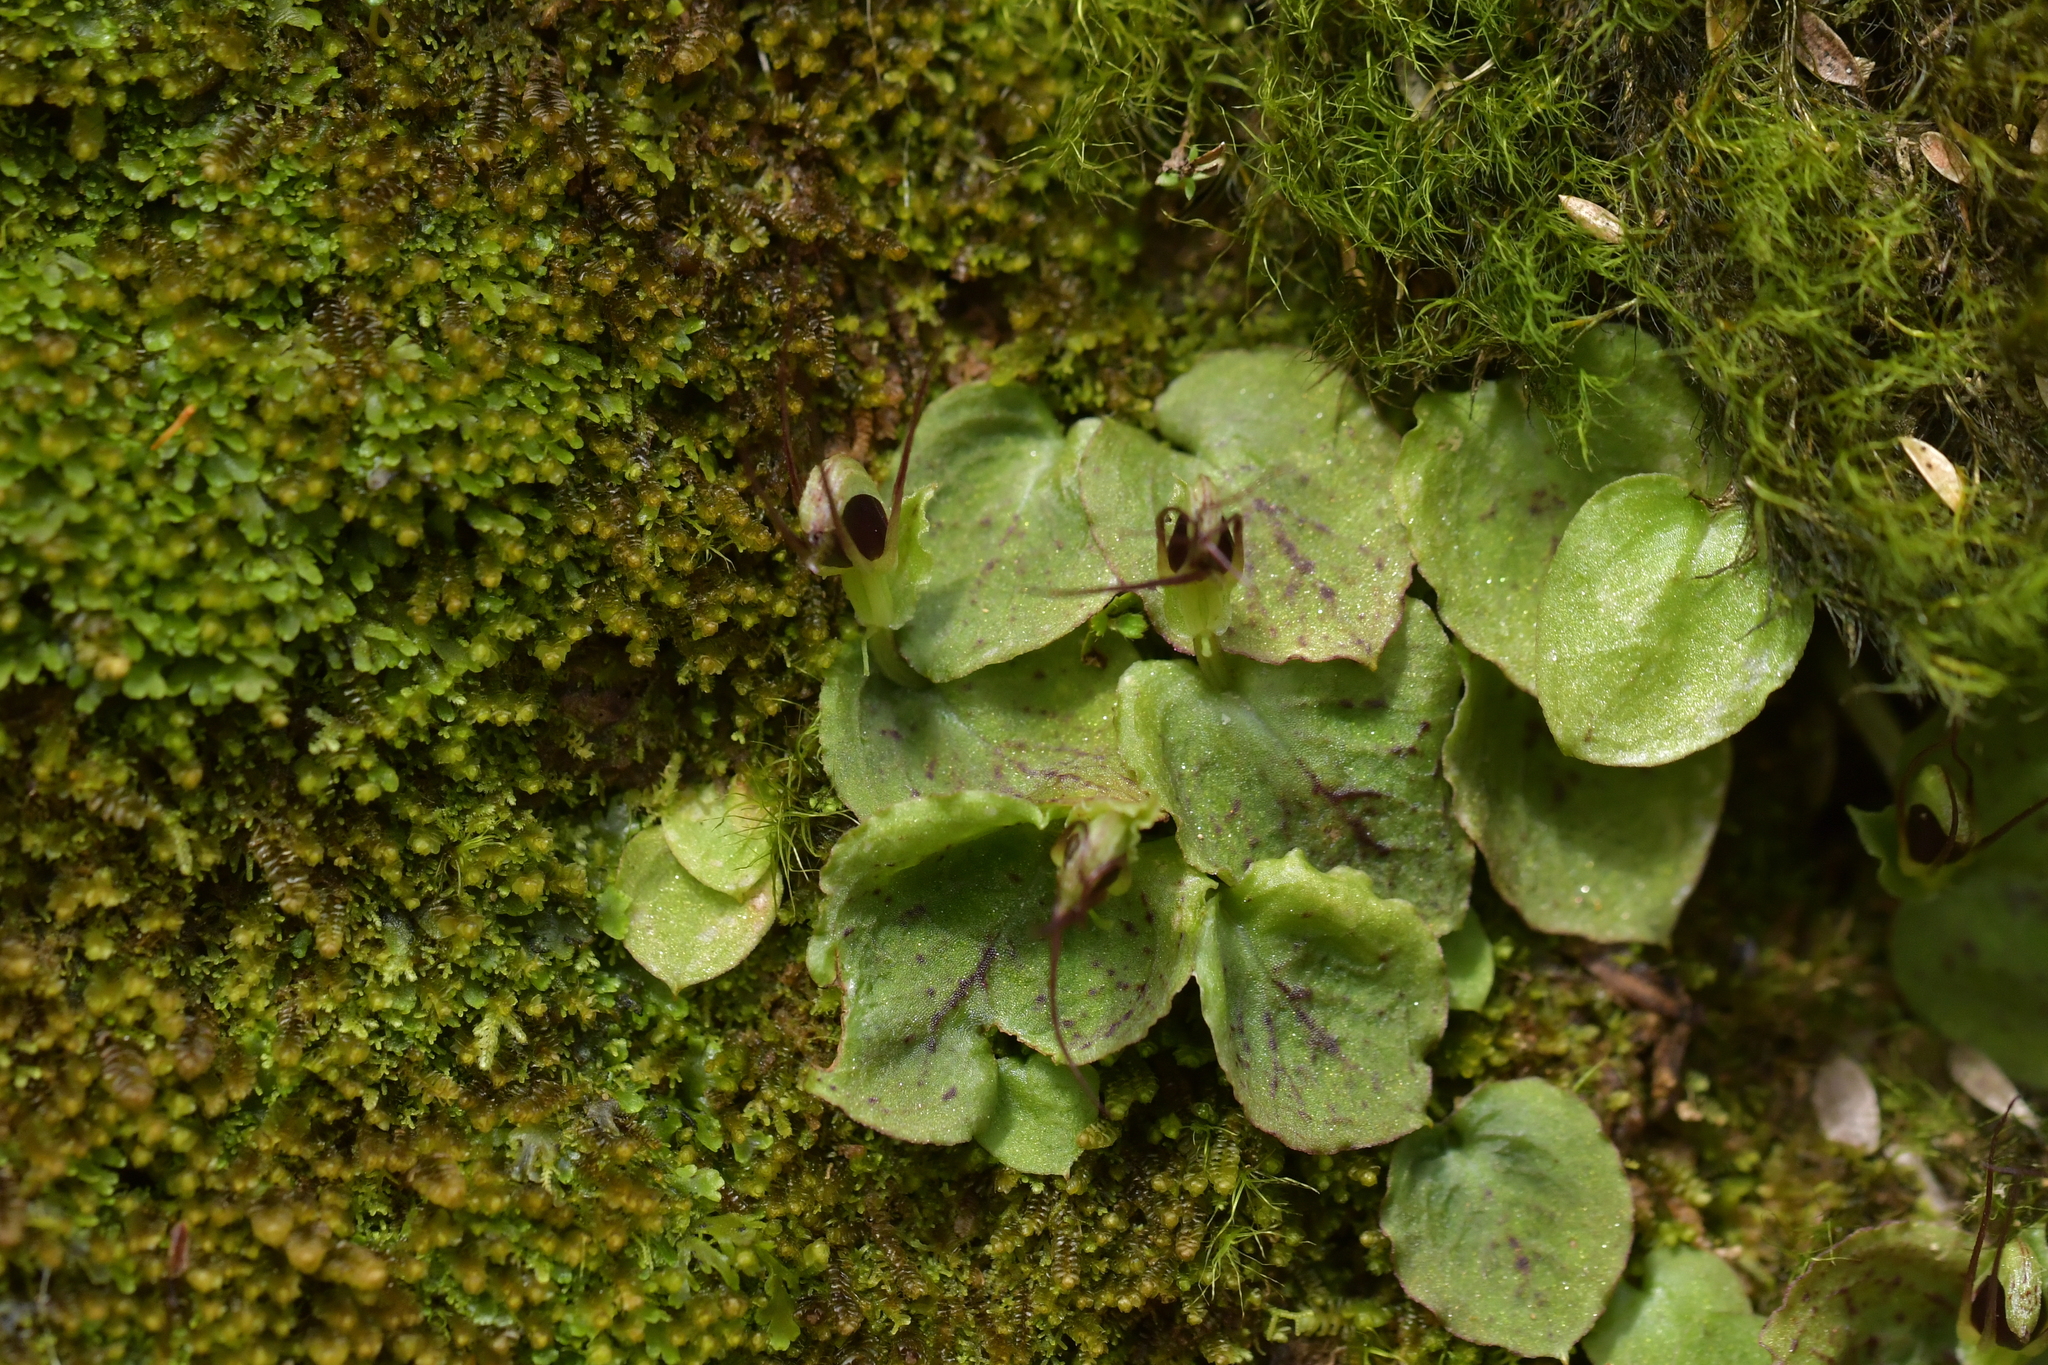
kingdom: Plantae
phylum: Tracheophyta
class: Liliopsida
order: Asparagales
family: Orchidaceae
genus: Corybas
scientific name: Corybas oblongus
